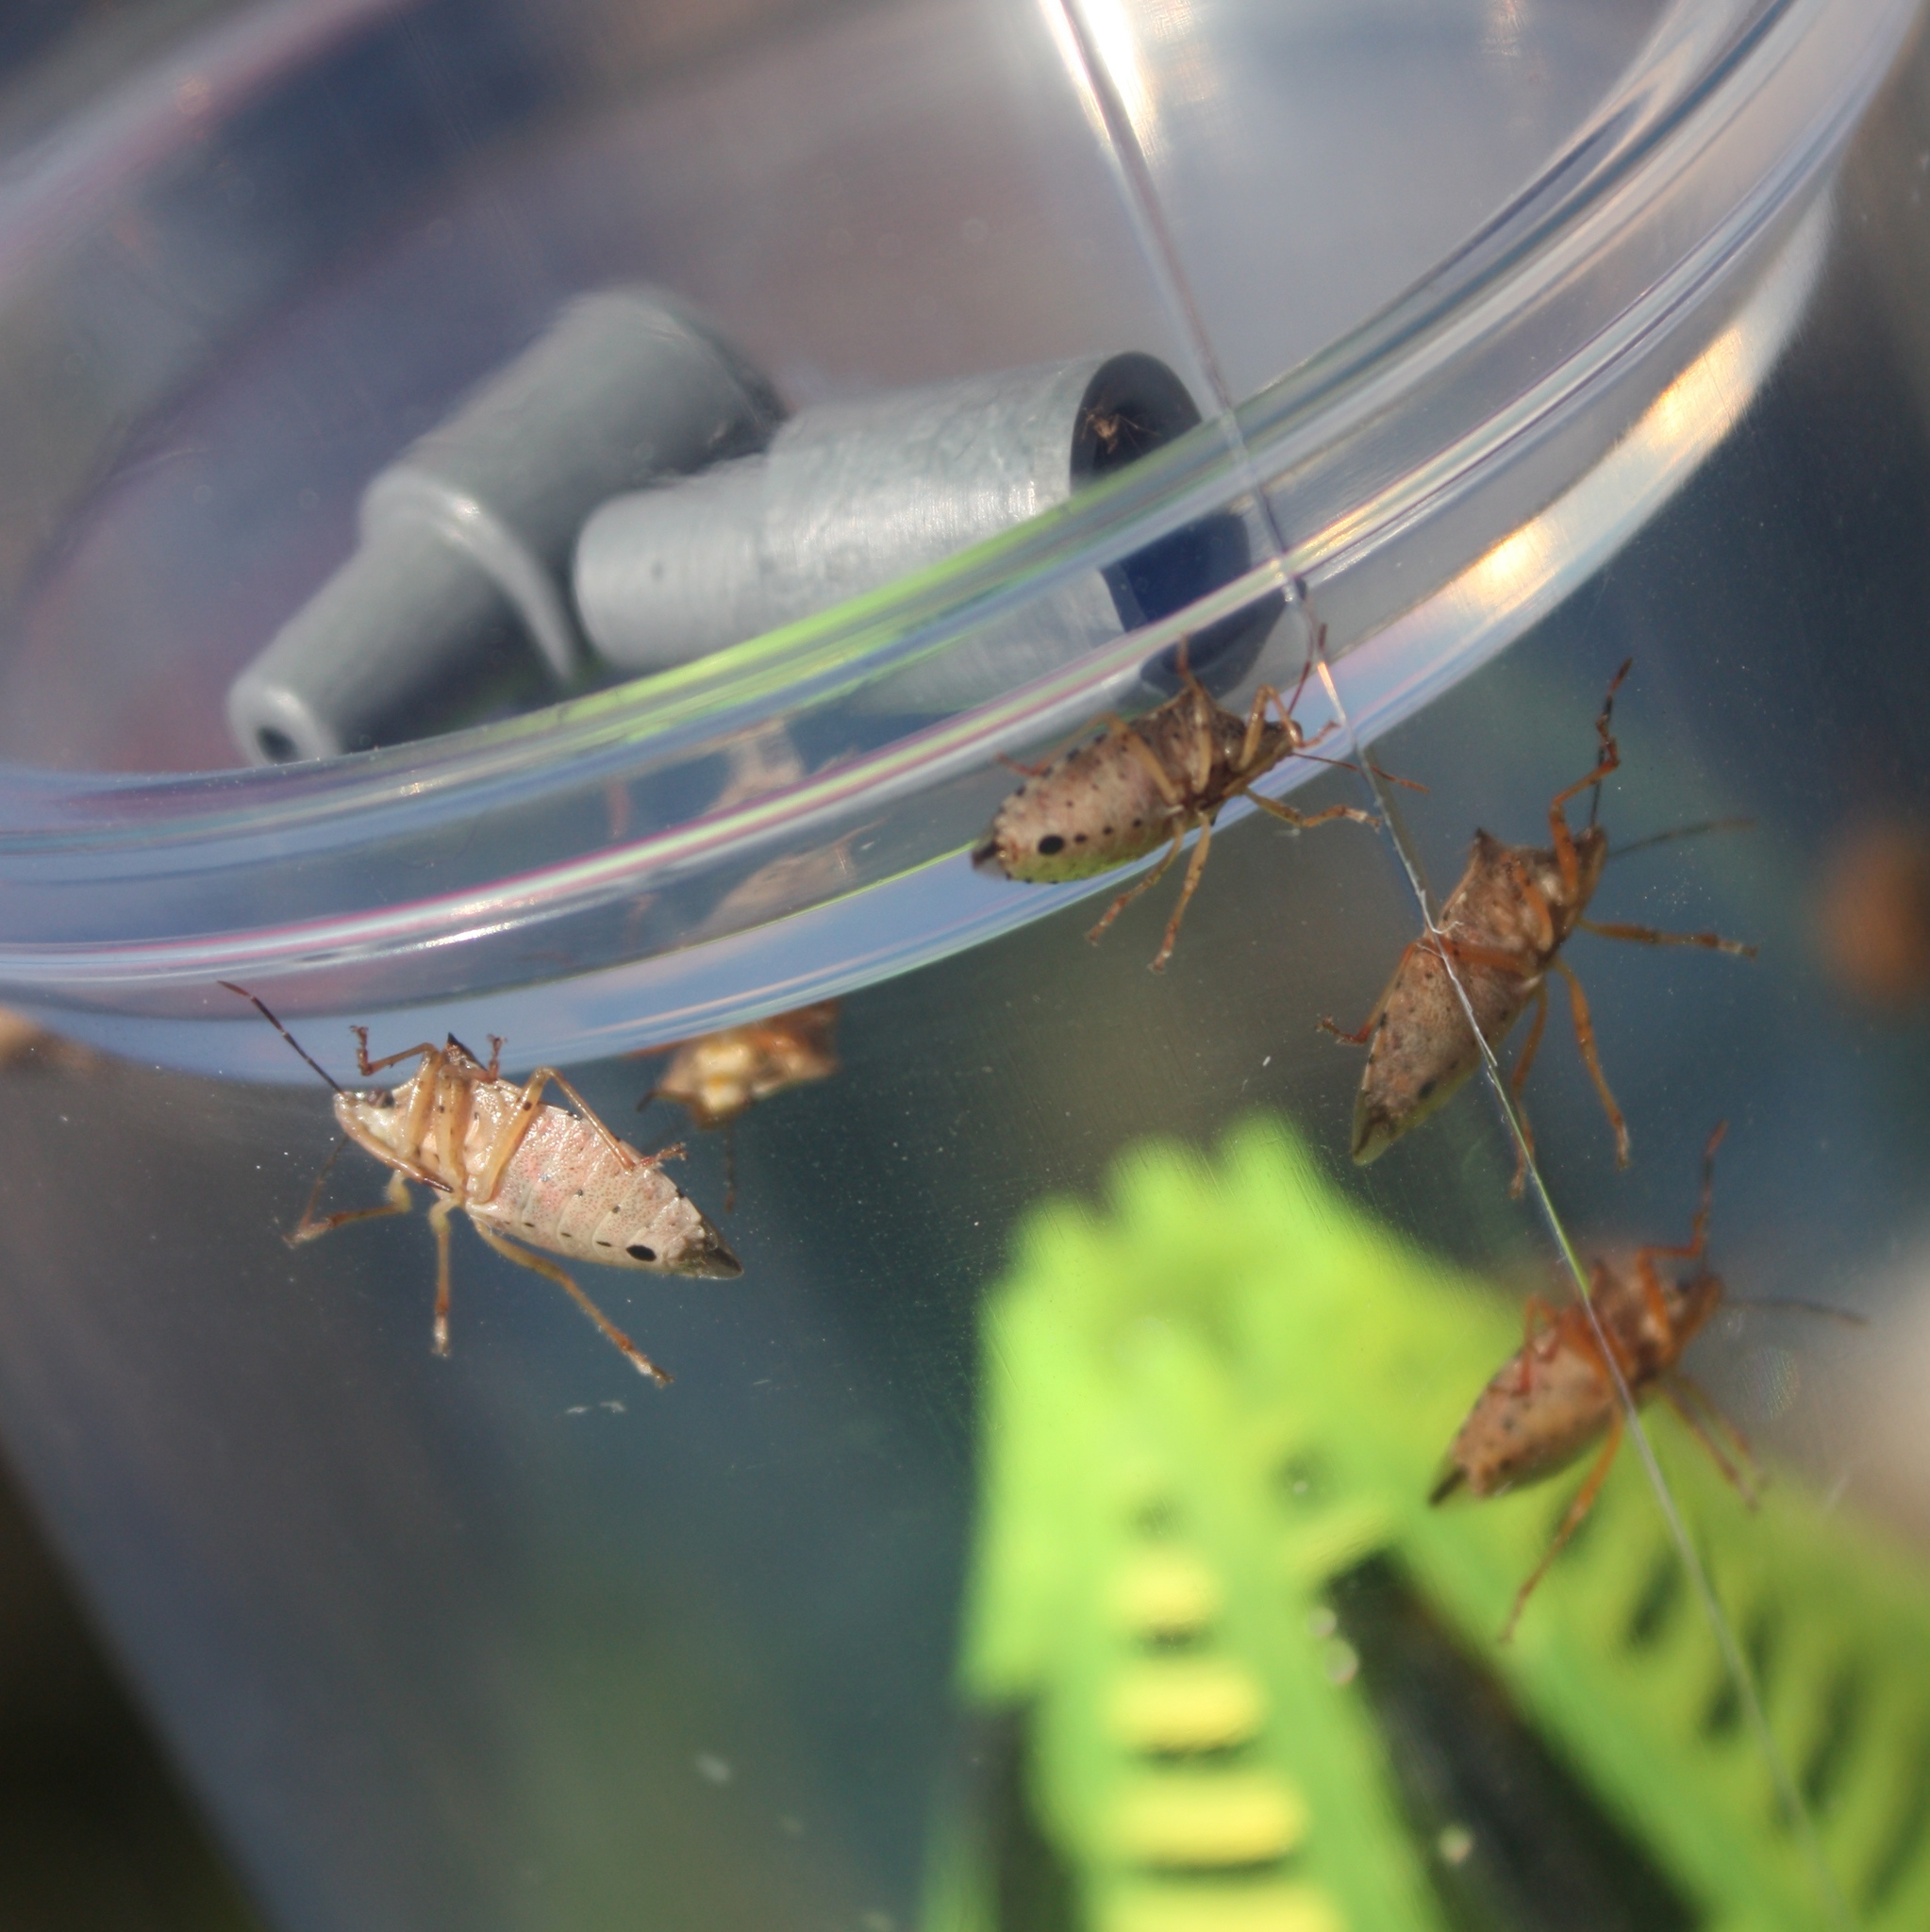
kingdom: Animalia
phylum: Arthropoda
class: Insecta
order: Hemiptera
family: Pentatomidae
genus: Podisus
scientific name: Podisus maculiventris
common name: Spined soldier bug
